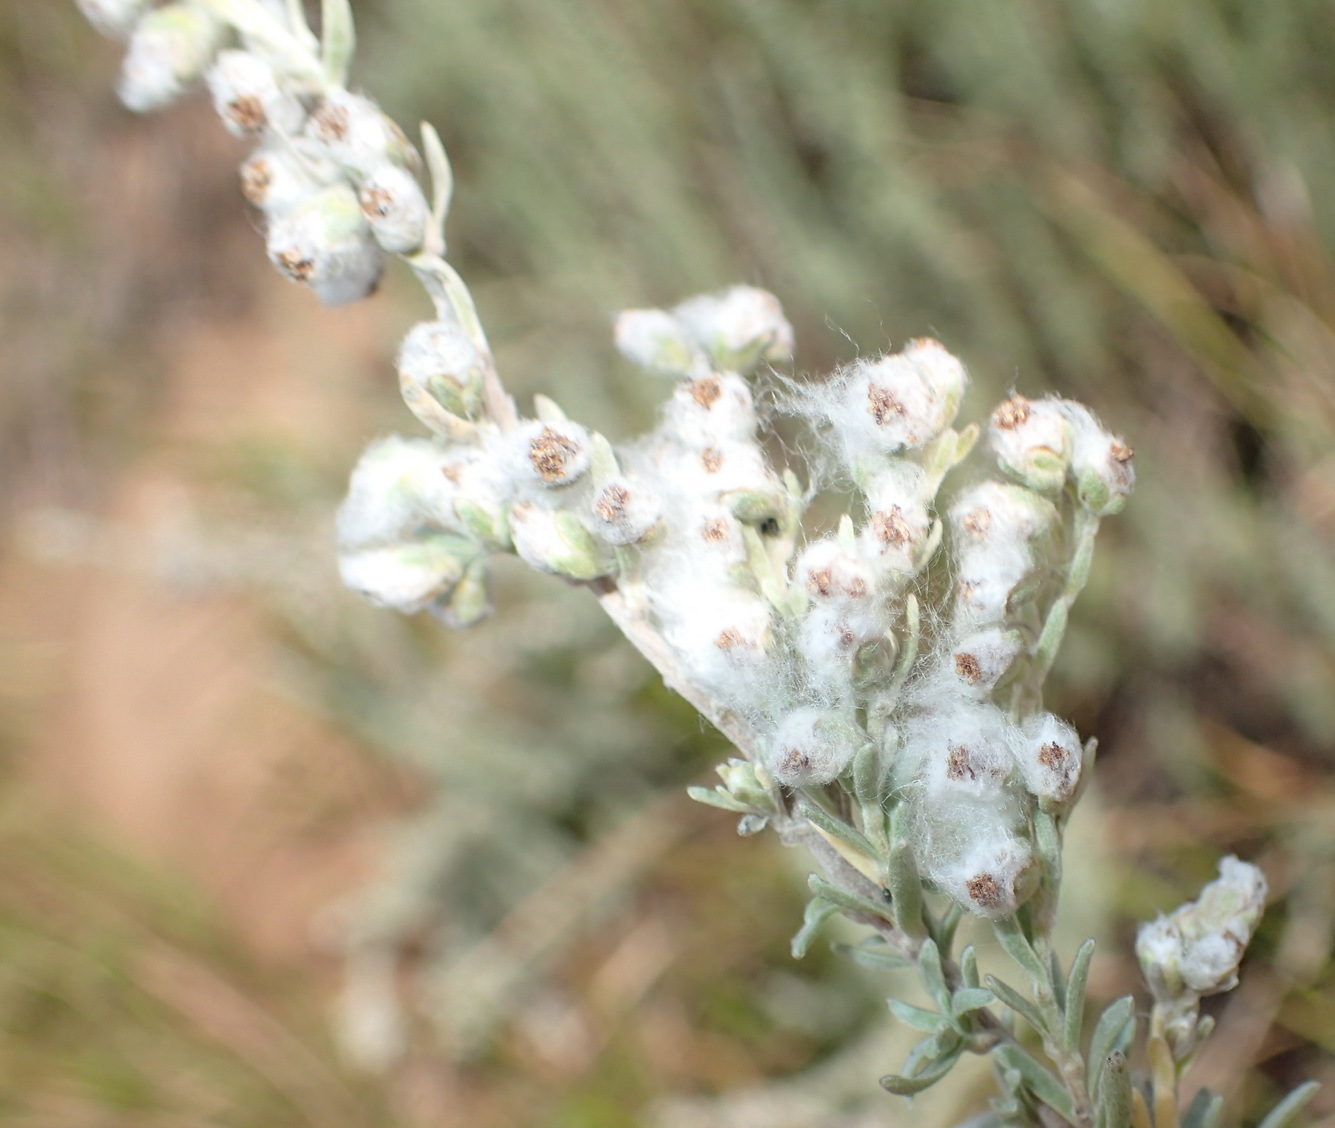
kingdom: Plantae
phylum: Tracheophyta
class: Magnoliopsida
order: Asterales
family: Asteraceae
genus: Eriocephalus
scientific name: Eriocephalus racemosus
